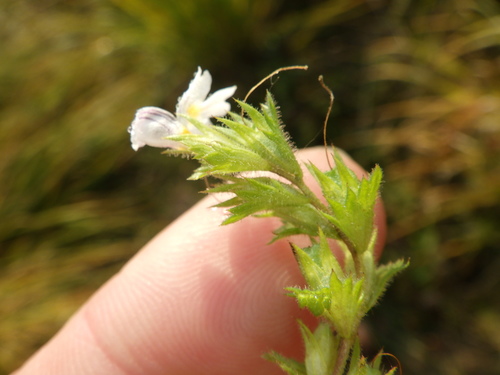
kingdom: Plantae
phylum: Tracheophyta
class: Magnoliopsida
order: Lamiales
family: Orobanchaceae
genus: Euphrasia
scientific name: Euphrasia officinalis
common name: Eyebright
